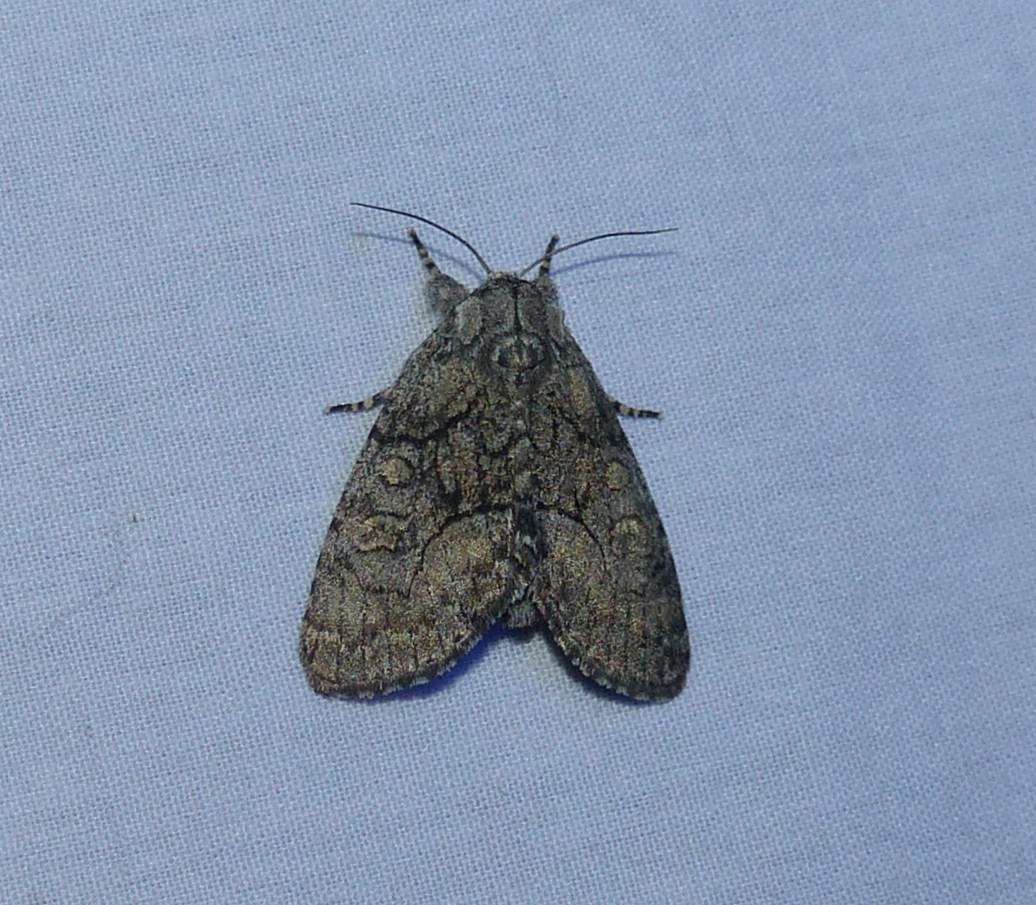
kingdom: Animalia
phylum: Arthropoda
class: Insecta
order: Lepidoptera
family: Noctuidae
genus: Raphia
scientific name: Raphia frater
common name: Brother
